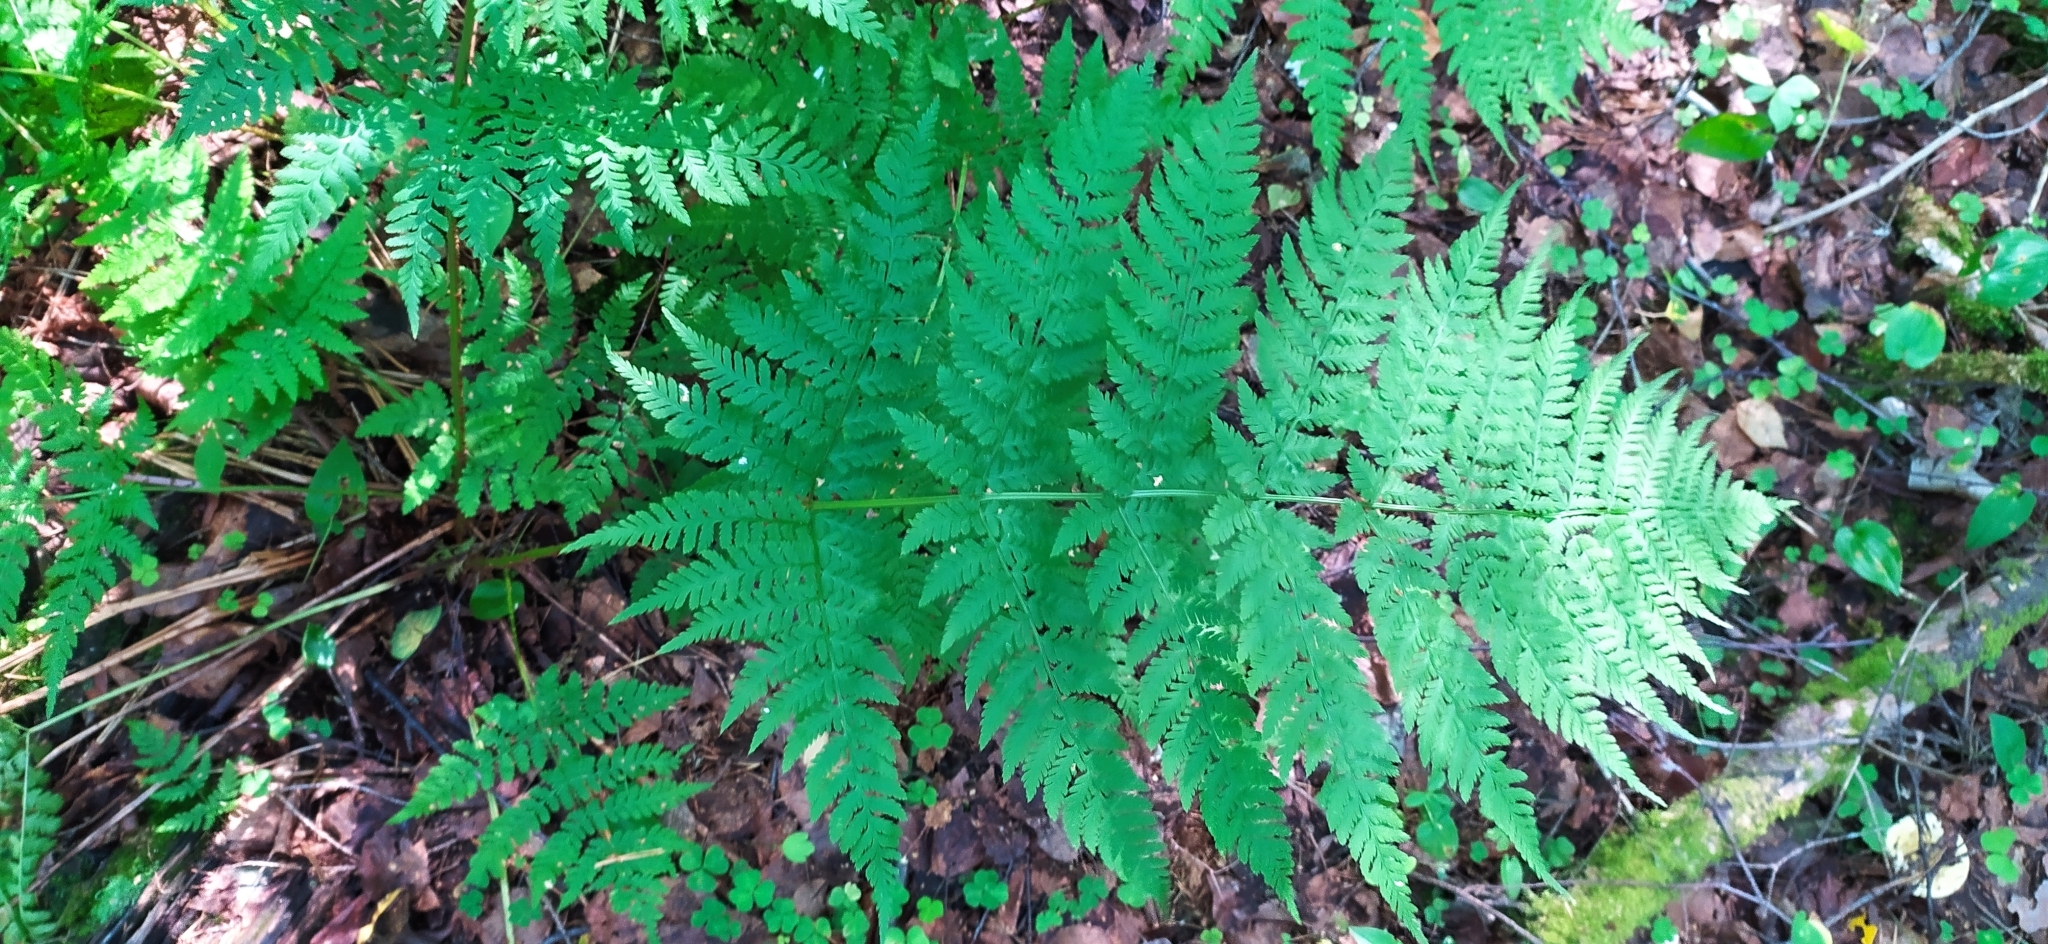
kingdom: Plantae
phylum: Tracheophyta
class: Polypodiopsida
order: Polypodiales
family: Dryopteridaceae
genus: Dryopteris
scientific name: Dryopteris expansa
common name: Northern buckler fern
